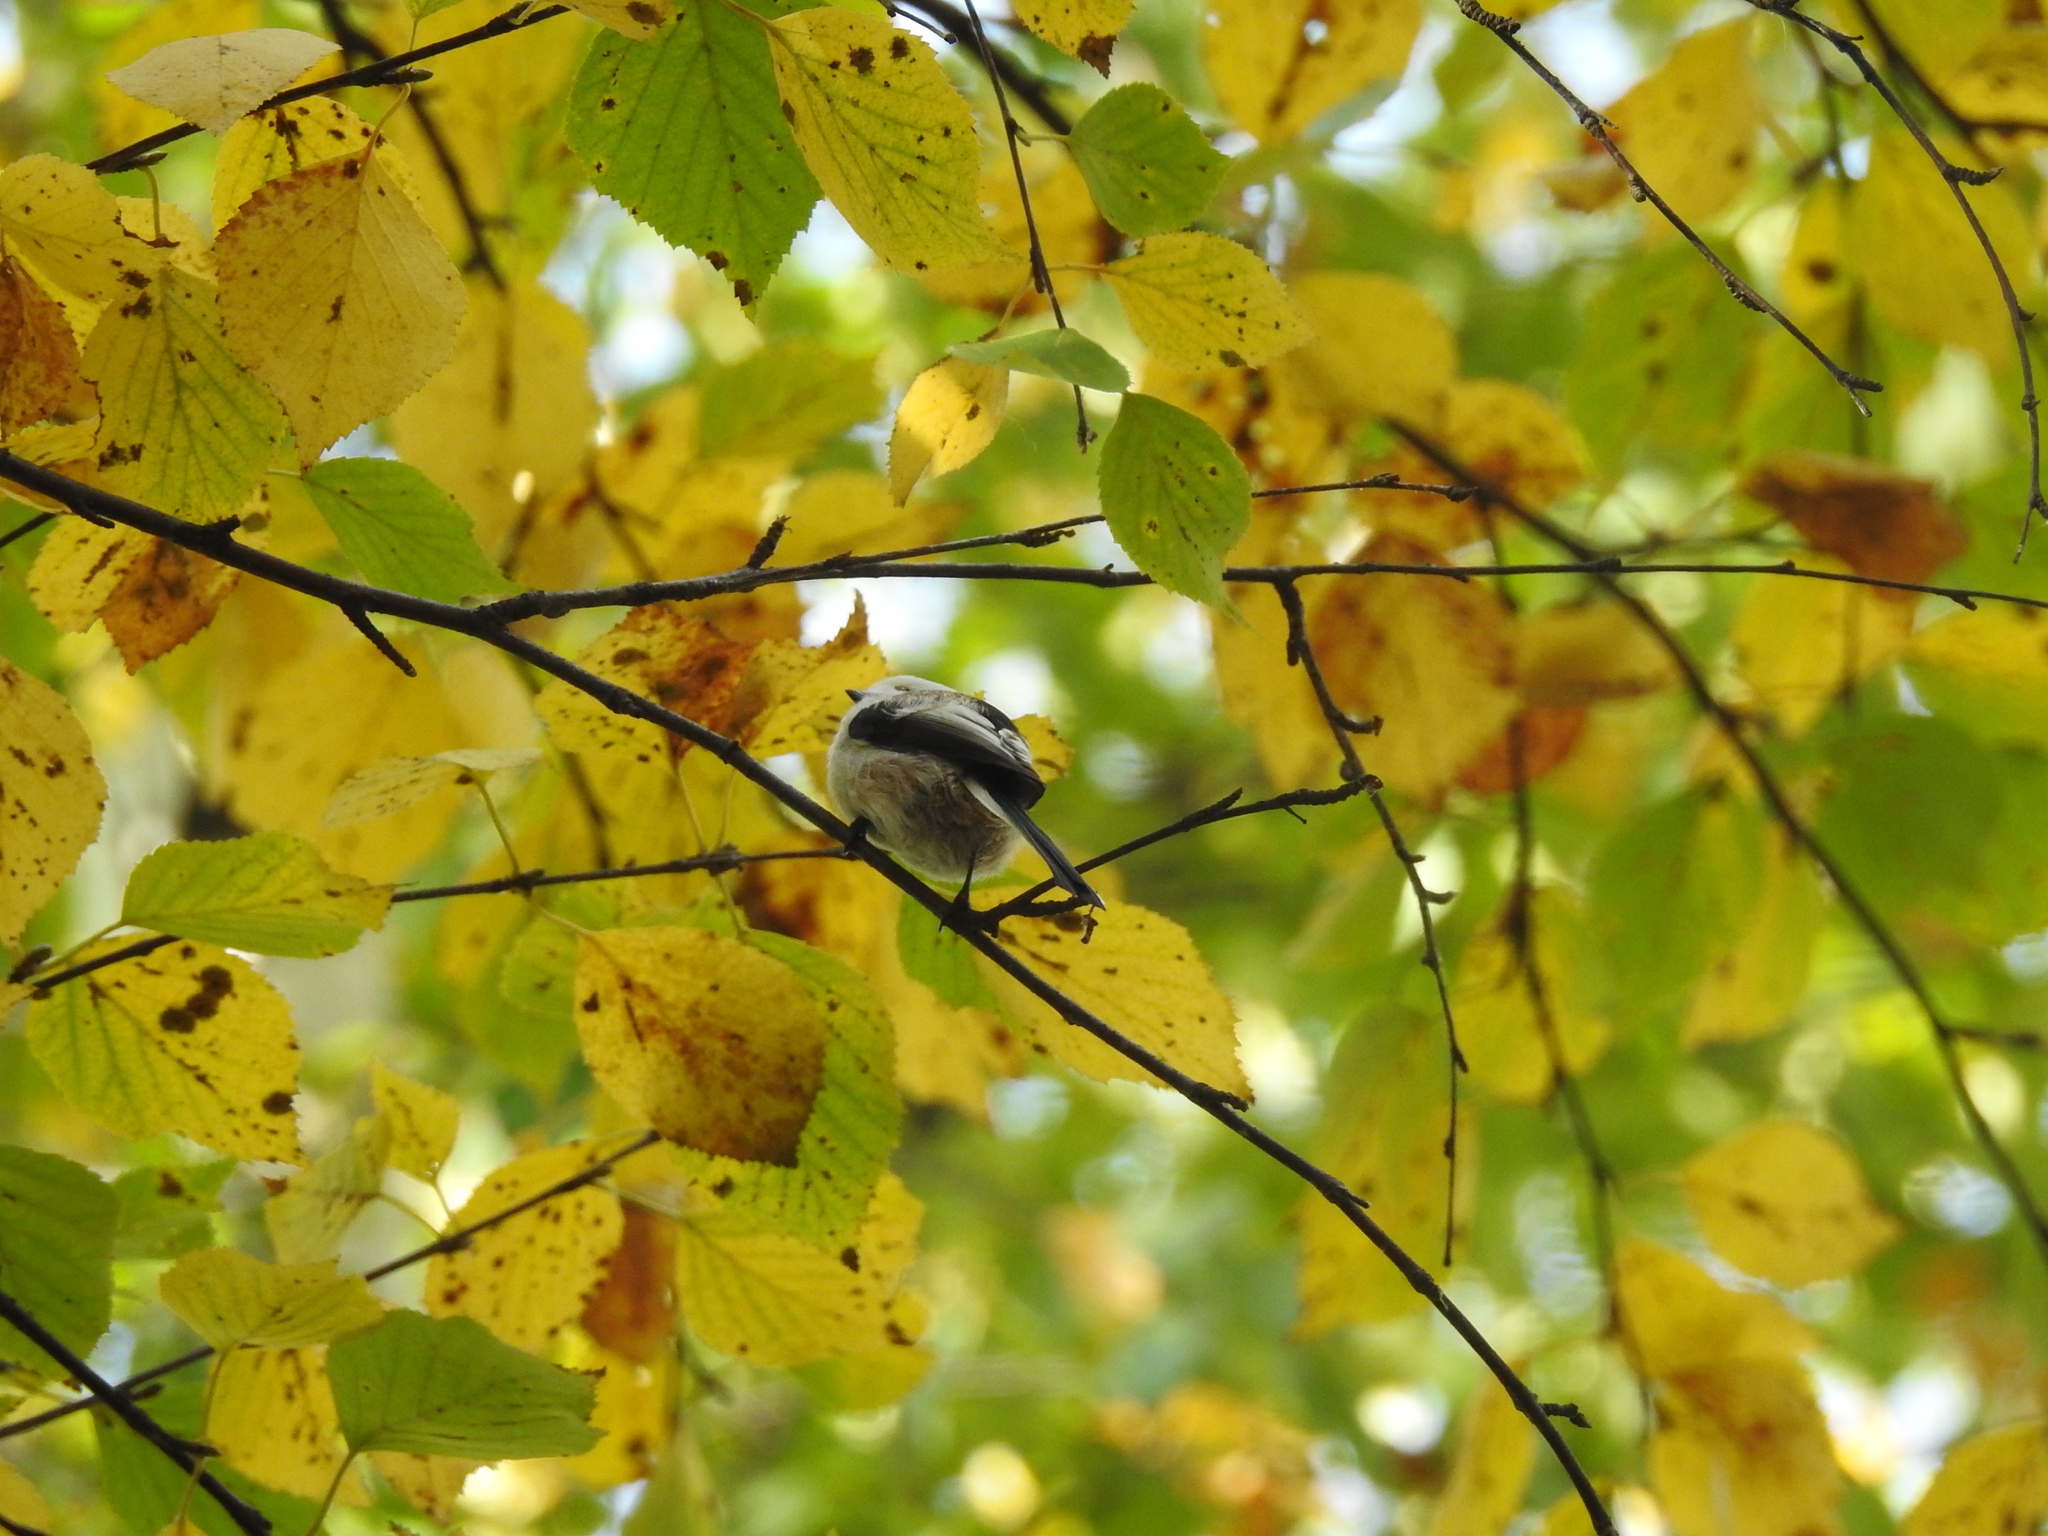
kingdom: Animalia
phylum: Chordata
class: Aves
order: Passeriformes
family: Aegithalidae
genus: Aegithalos
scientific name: Aegithalos caudatus
